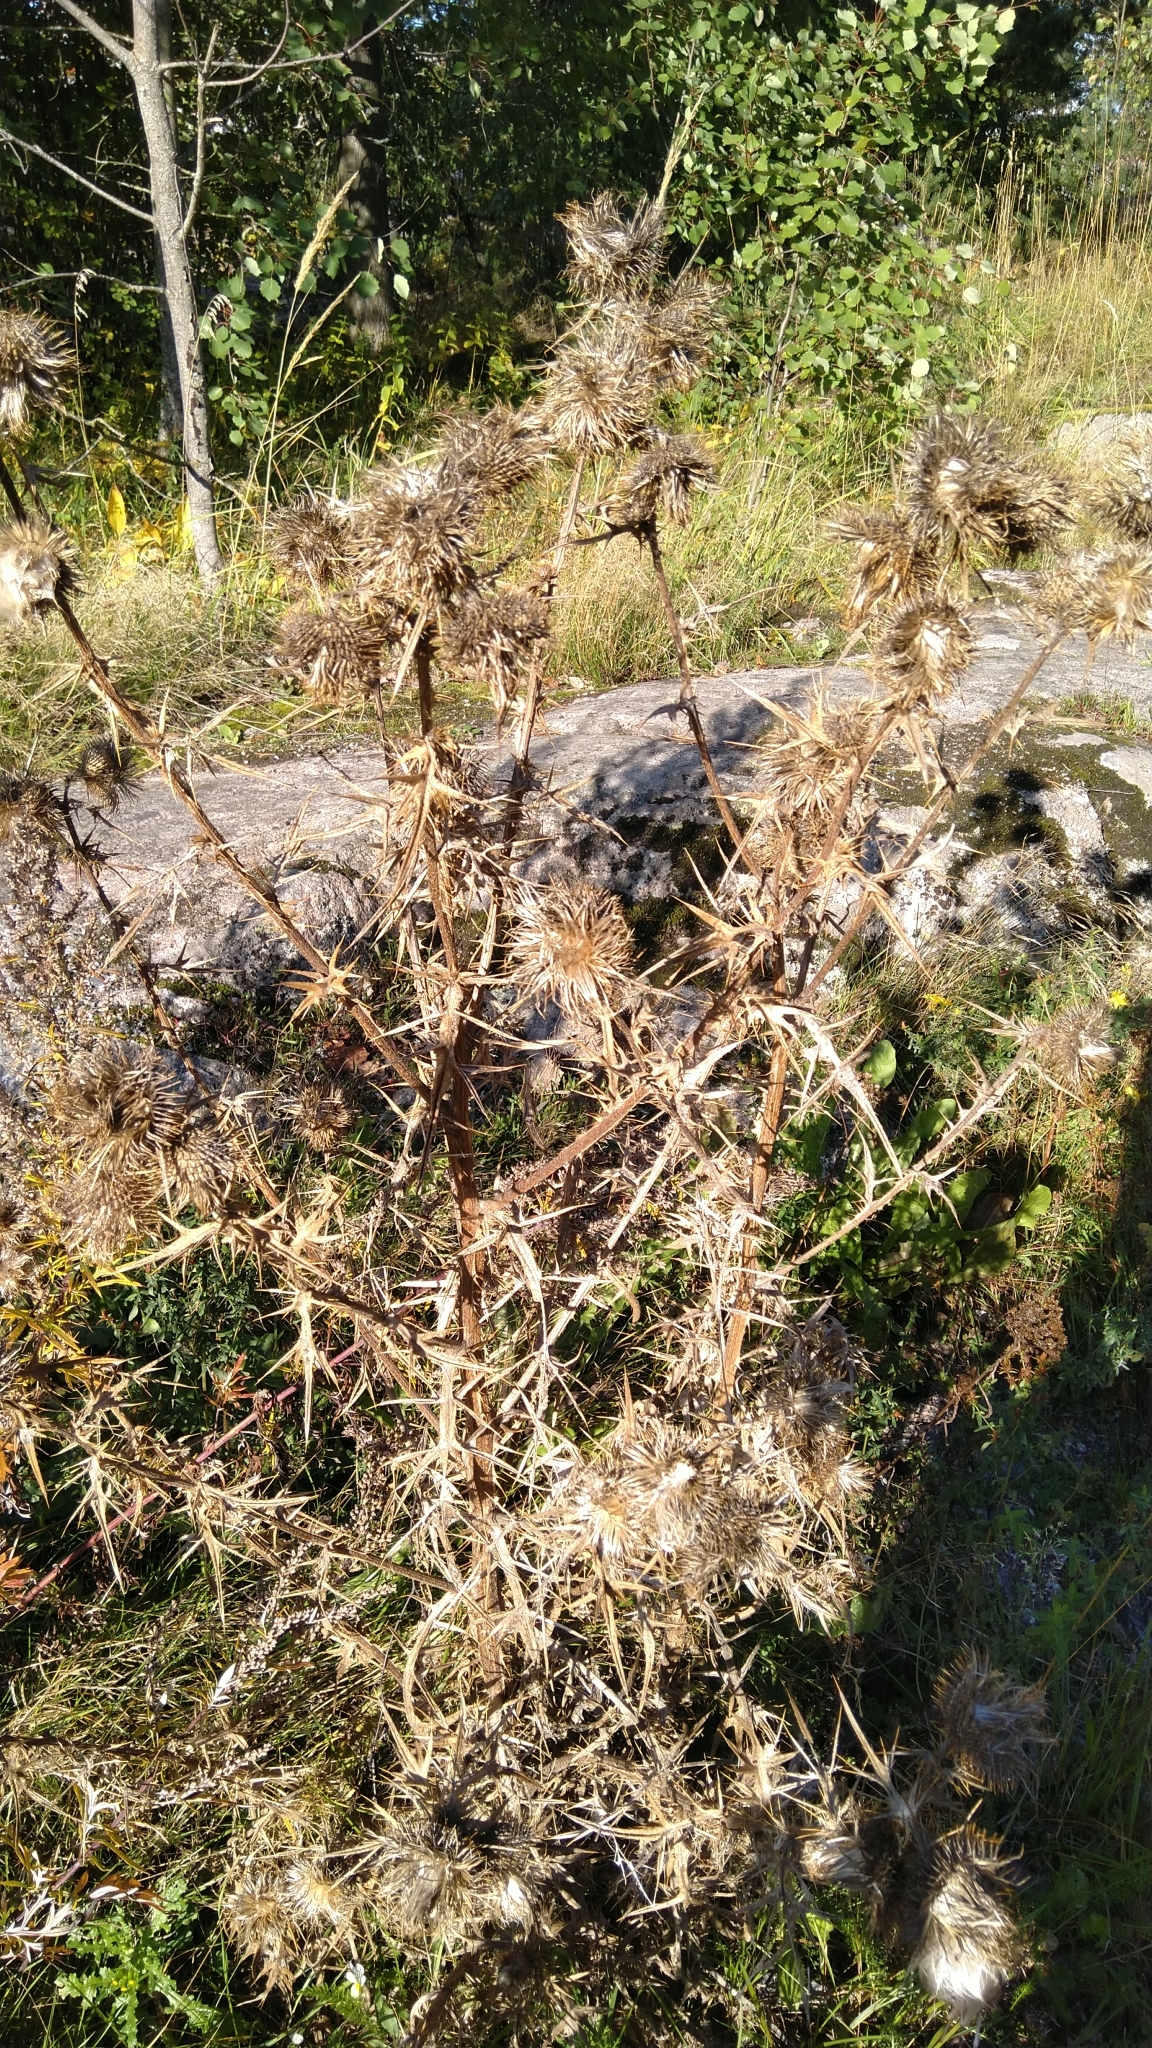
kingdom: Plantae
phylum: Tracheophyta
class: Magnoliopsida
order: Asterales
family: Asteraceae
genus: Cirsium
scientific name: Cirsium vulgare
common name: Bull thistle
